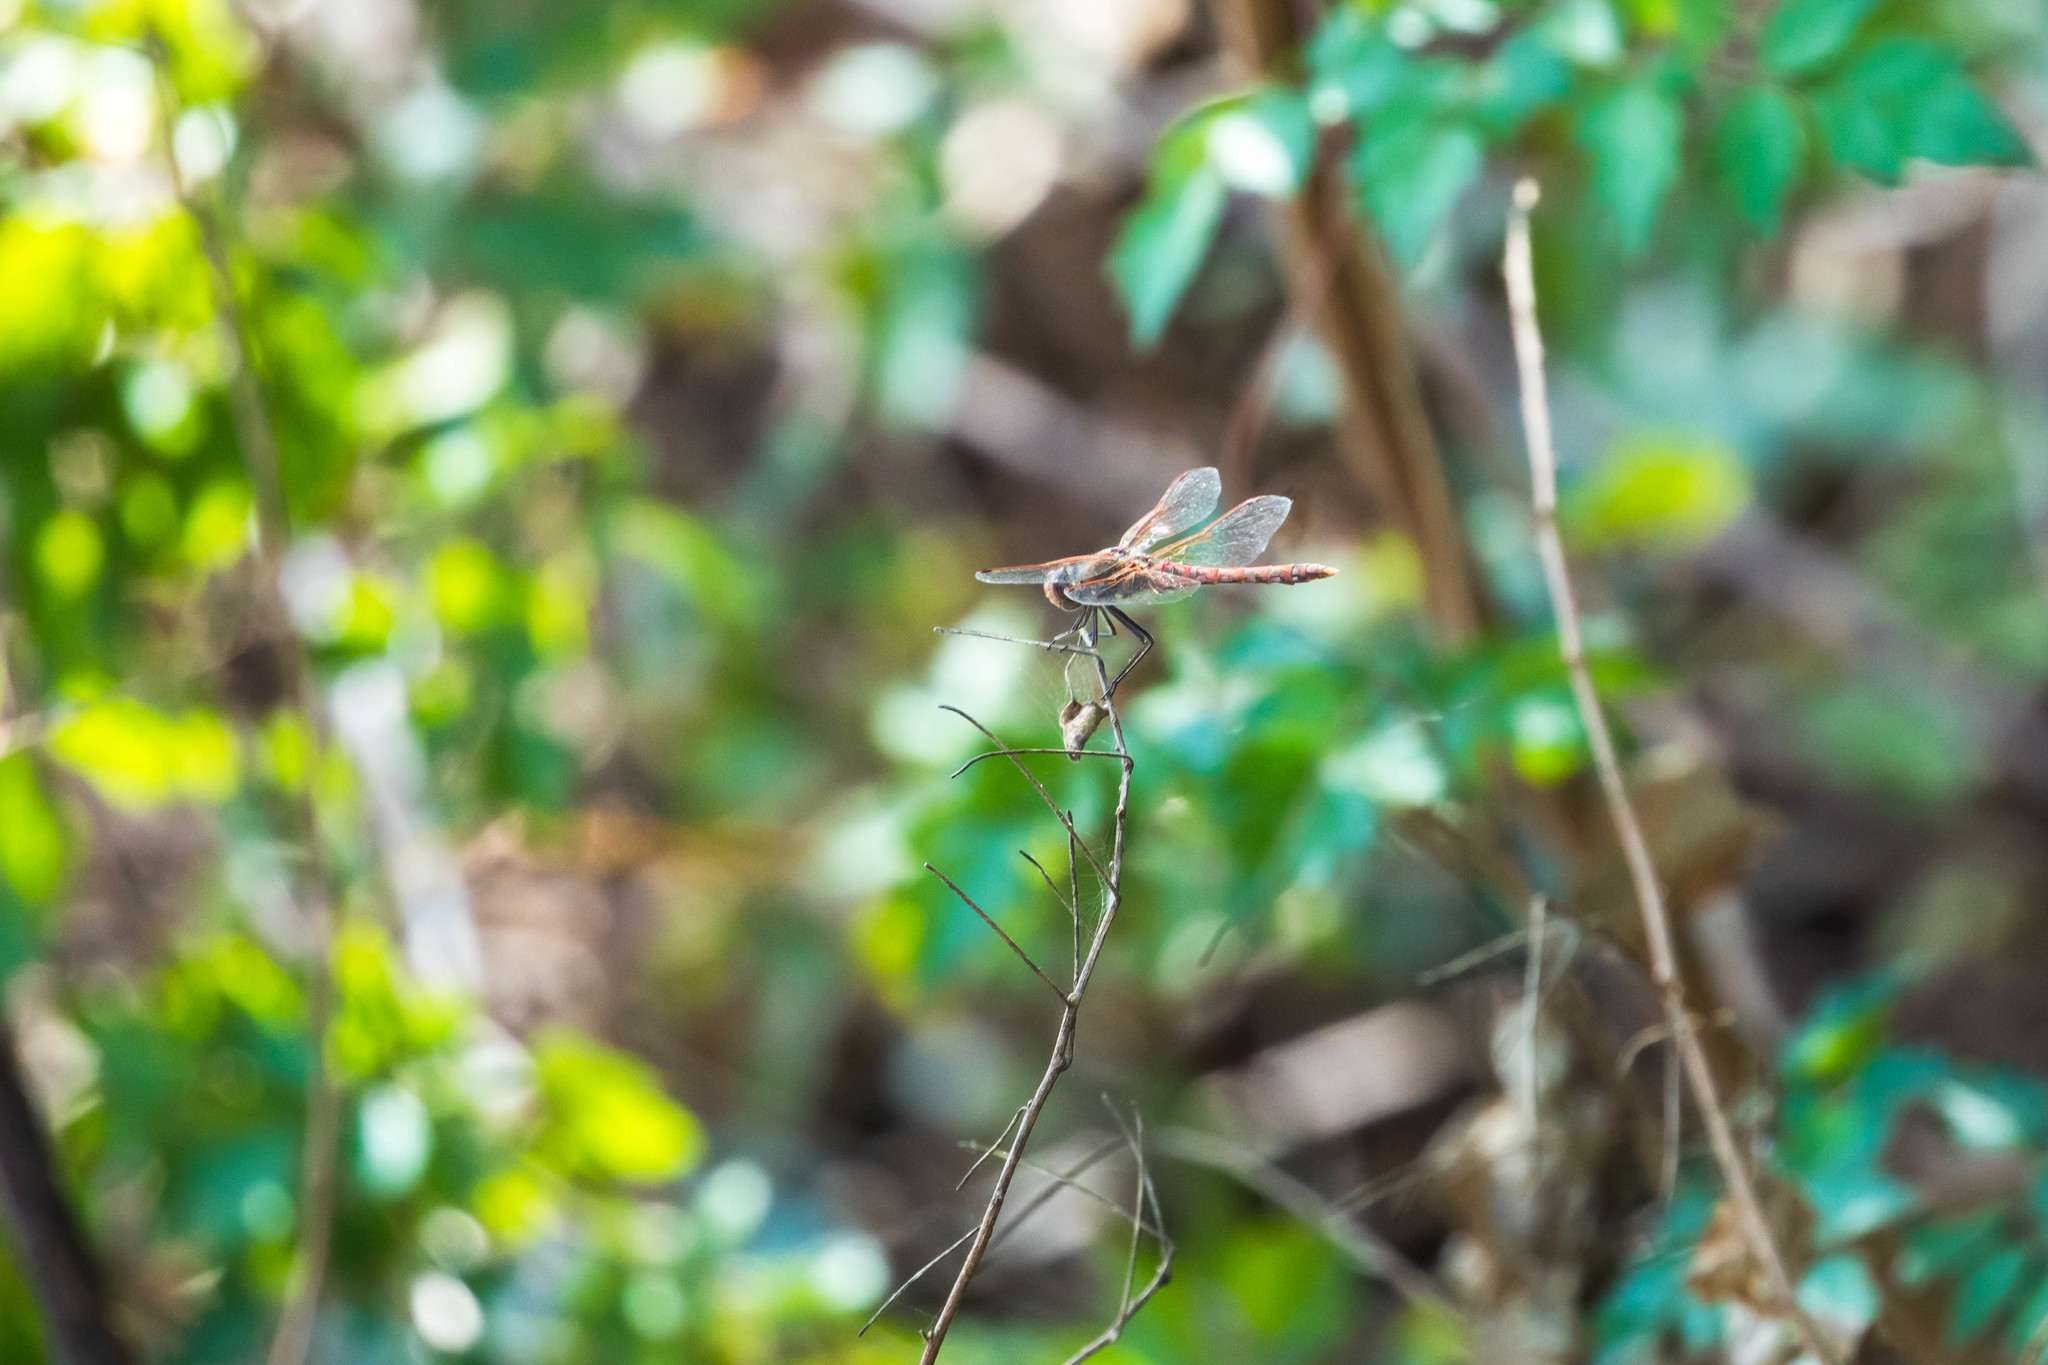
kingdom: Animalia
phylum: Arthropoda
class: Insecta
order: Odonata
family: Libellulidae
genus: Sympetrum
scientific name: Sympetrum corruptum
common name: Variegated meadowhawk
